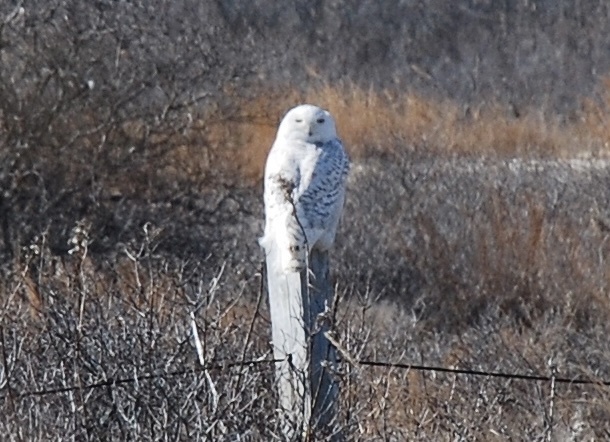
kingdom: Animalia
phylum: Chordata
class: Aves
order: Strigiformes
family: Strigidae
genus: Bubo
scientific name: Bubo scandiacus
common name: Snowy owl
